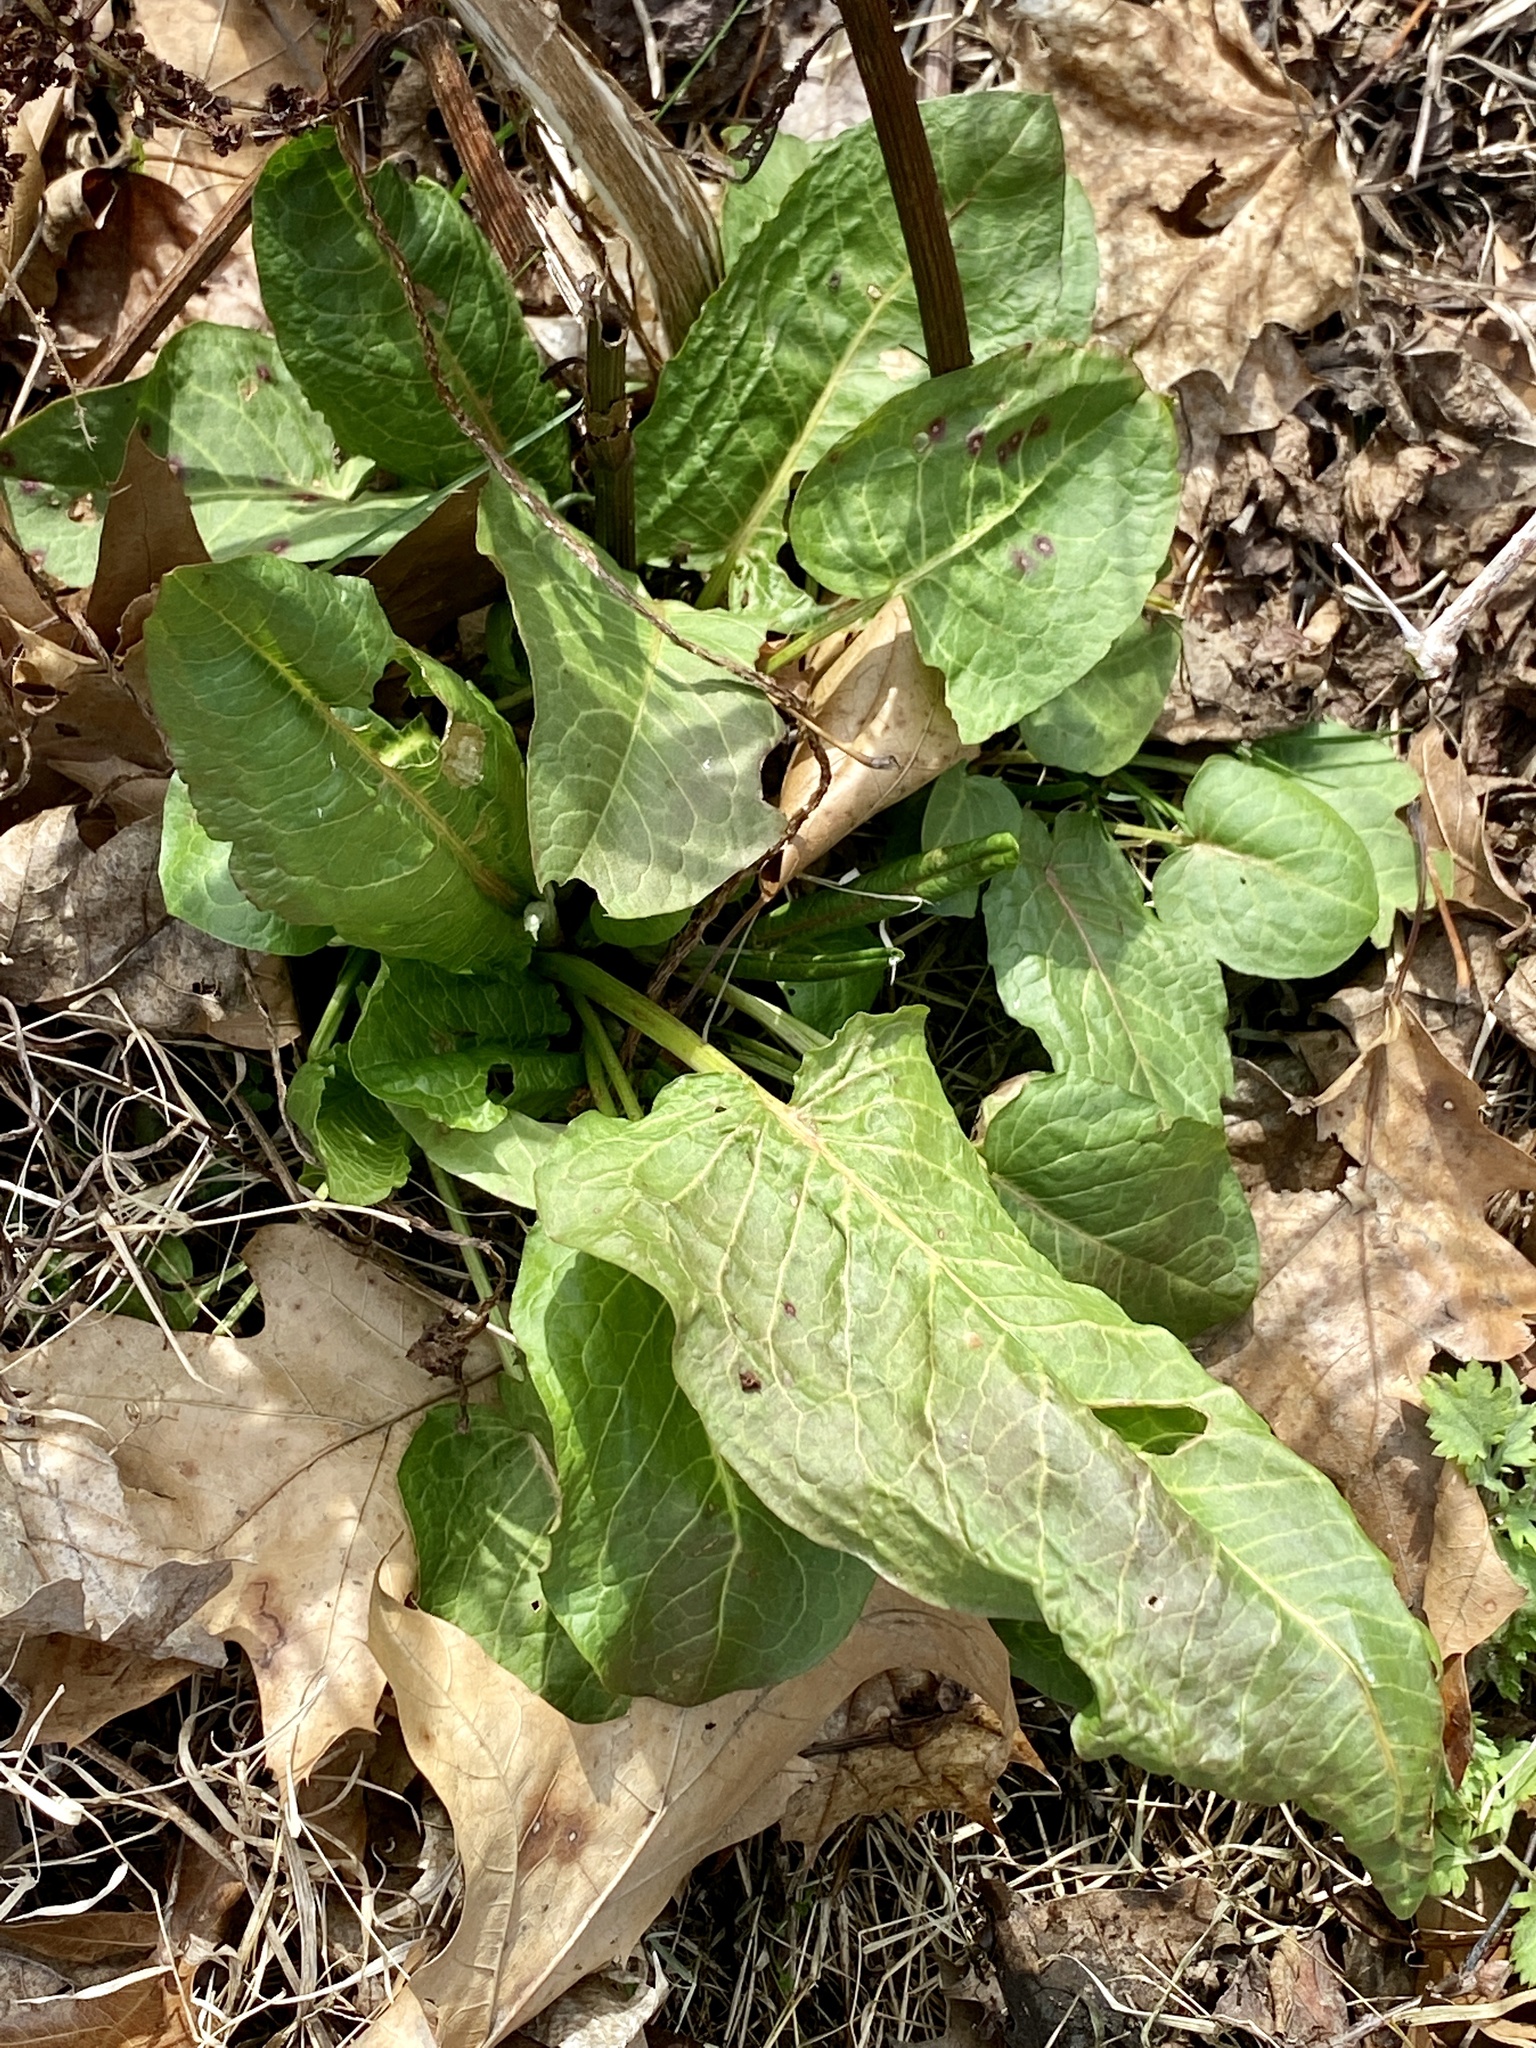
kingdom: Plantae
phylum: Tracheophyta
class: Magnoliopsida
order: Caryophyllales
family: Polygonaceae
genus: Rumex
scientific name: Rumex obtusifolius
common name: Bitter dock
